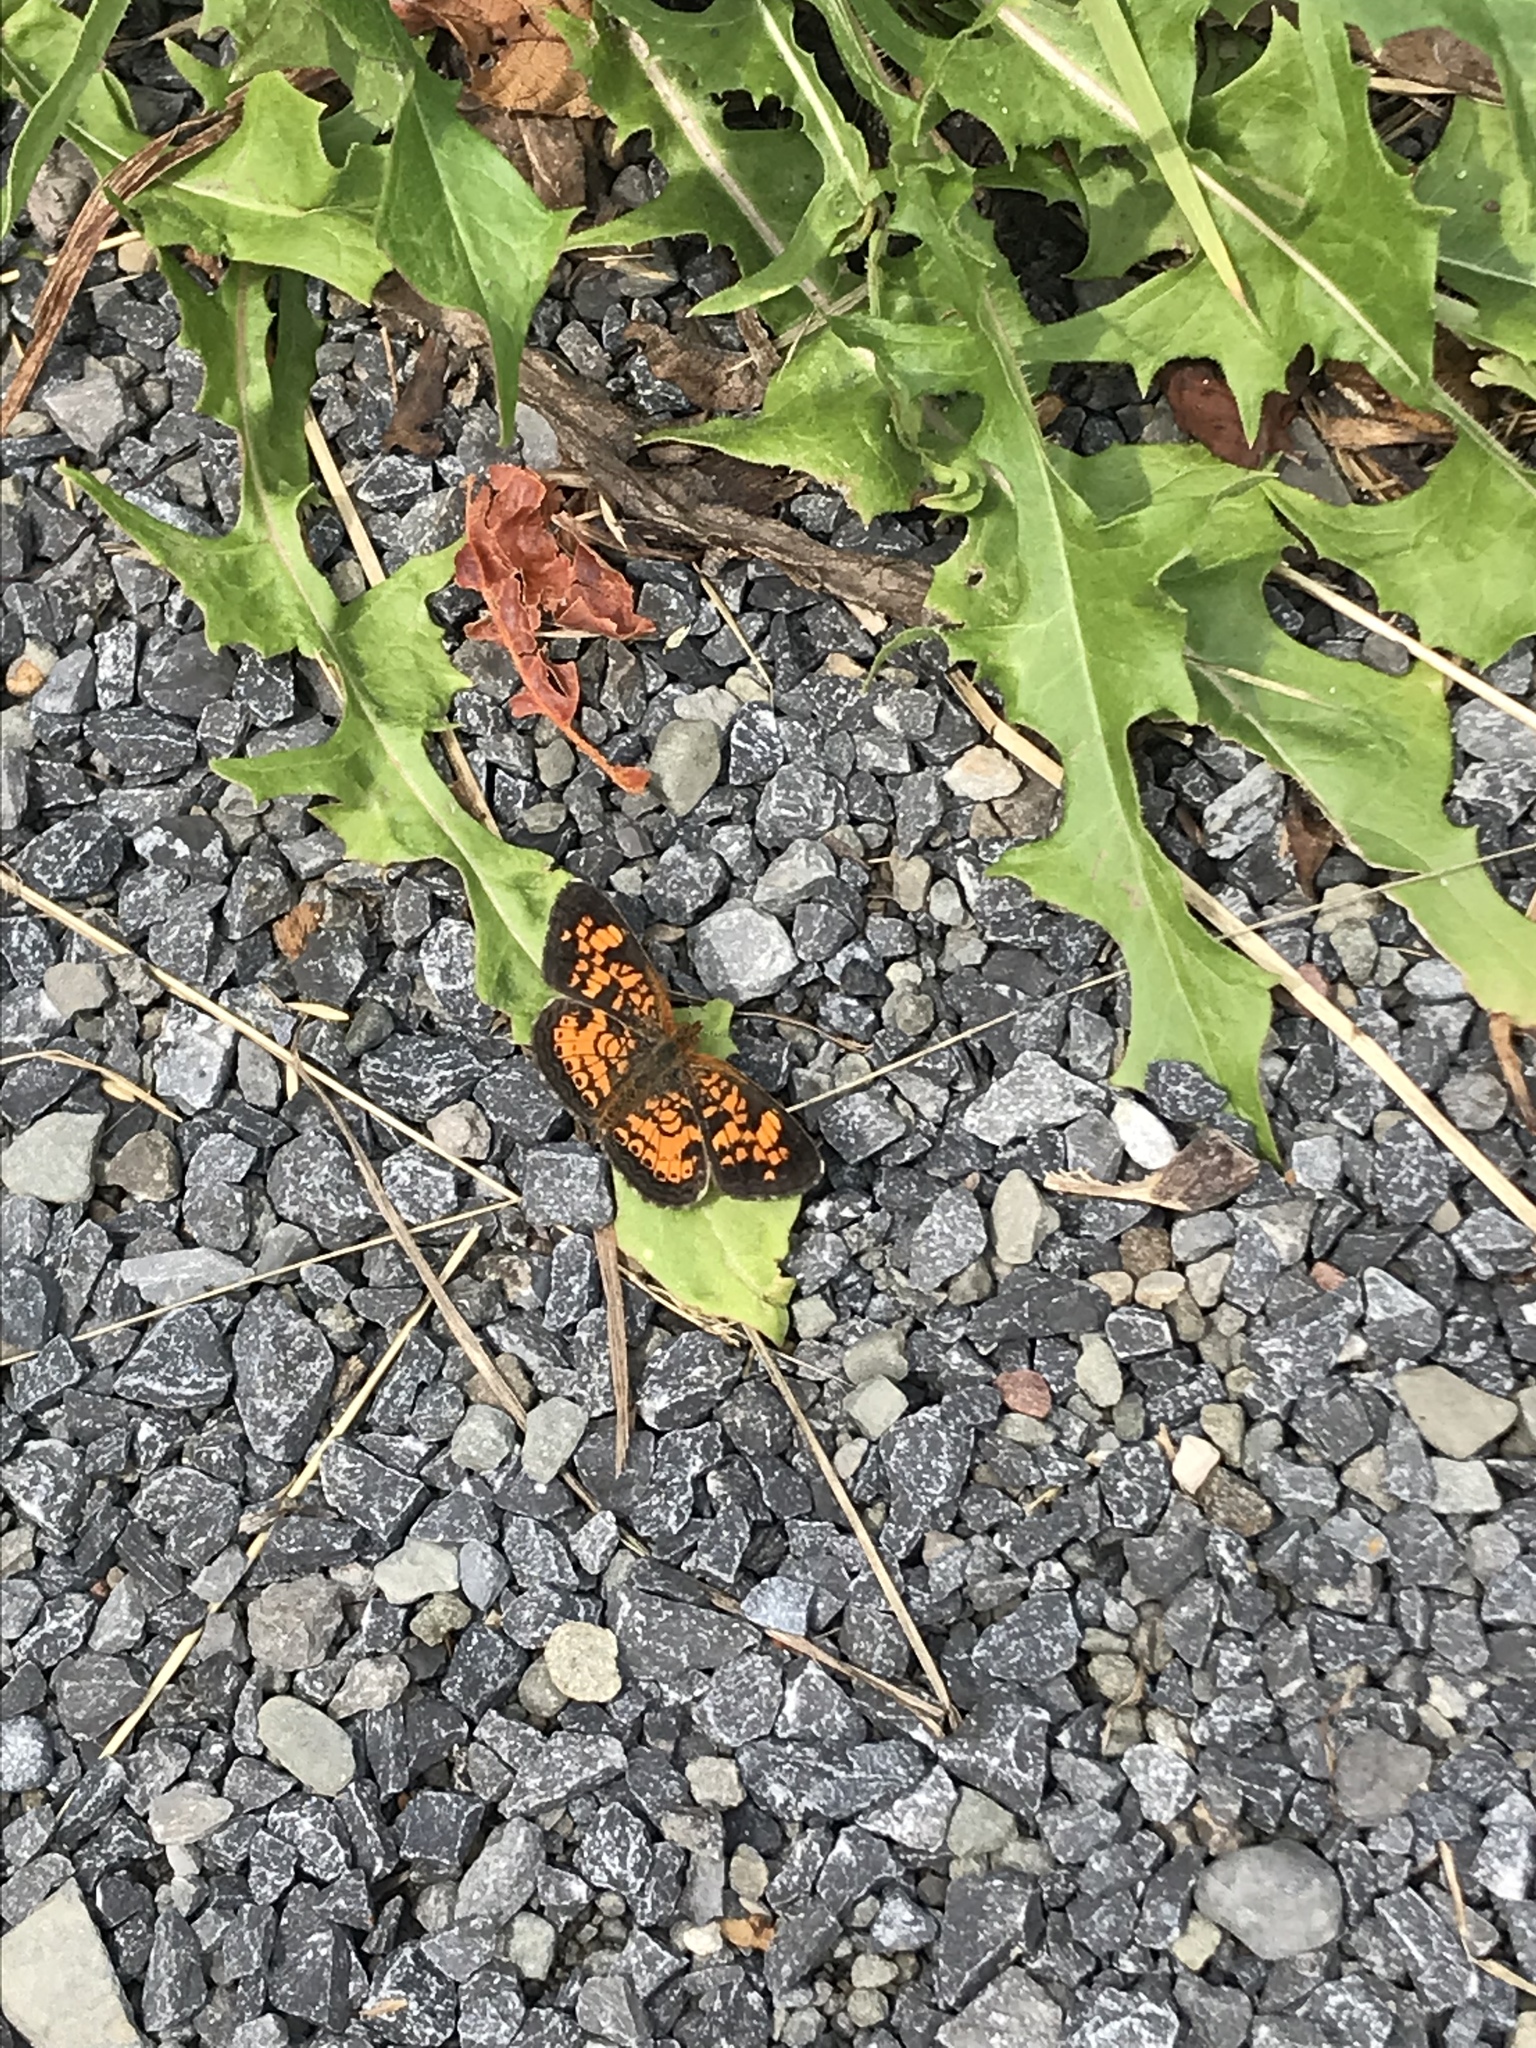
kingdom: Animalia
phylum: Arthropoda
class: Insecta
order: Lepidoptera
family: Nymphalidae
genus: Phyciodes
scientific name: Phyciodes tharos
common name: Pearl crescent
